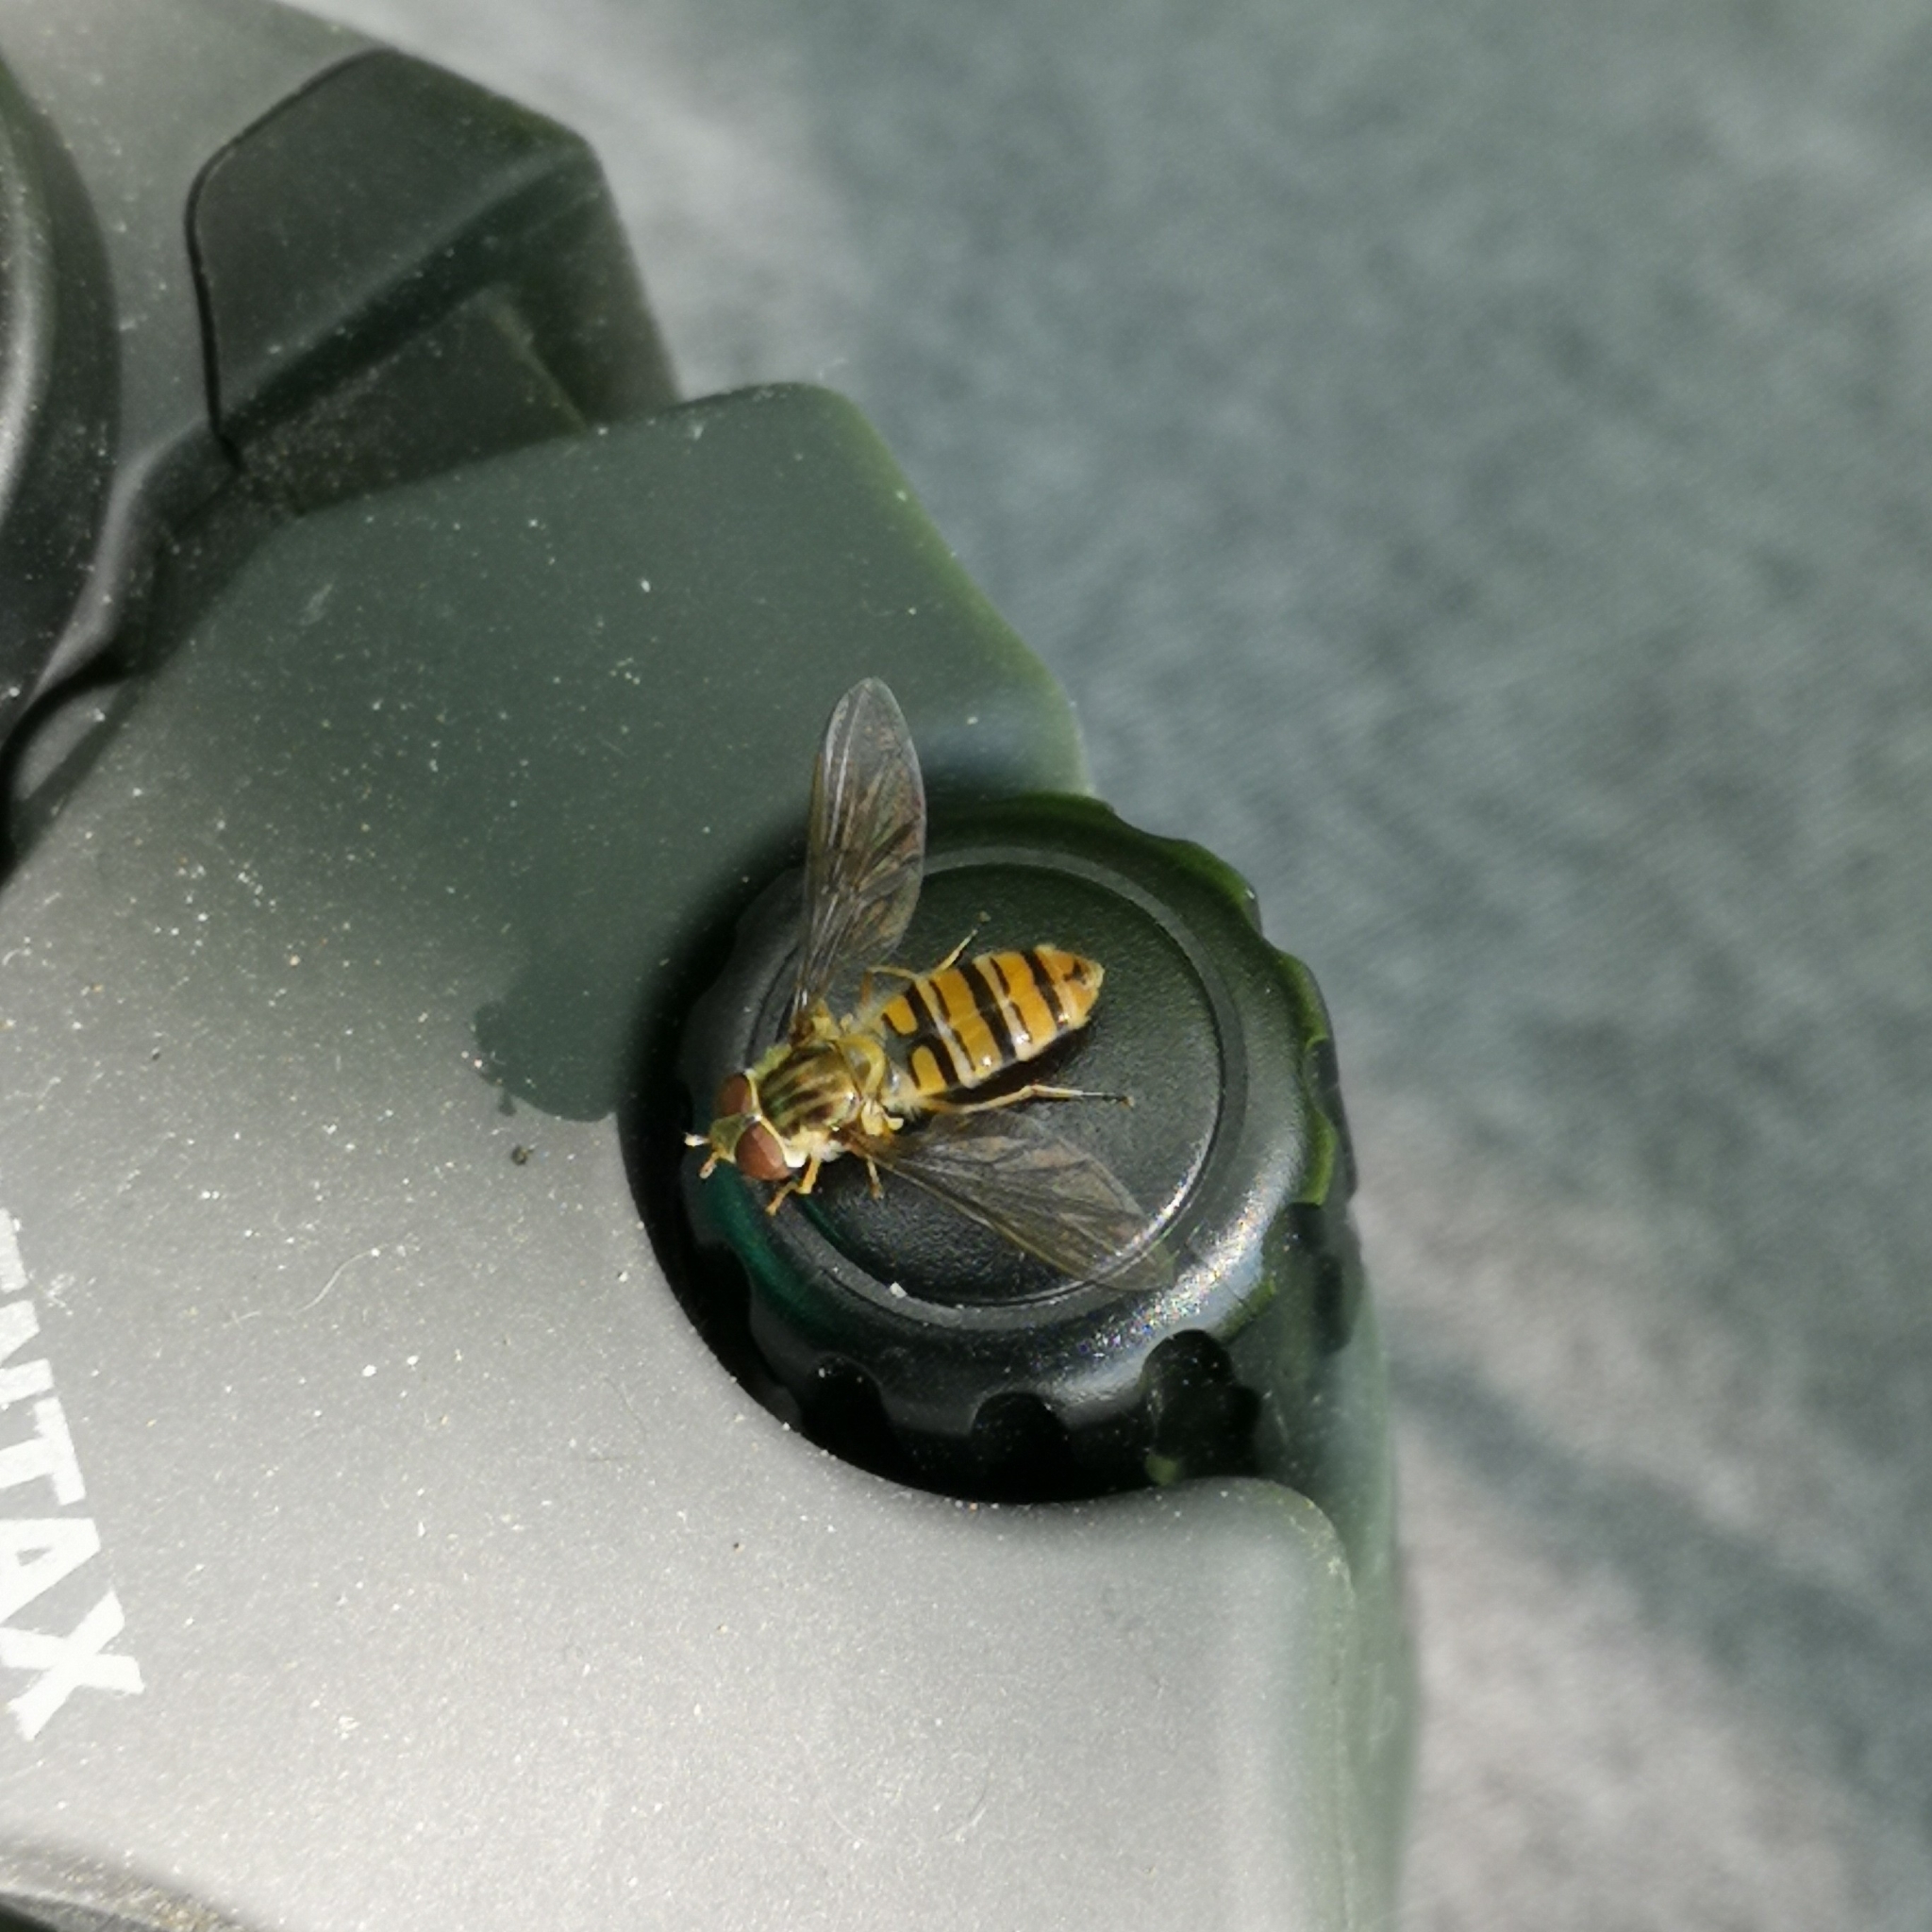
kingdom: Animalia
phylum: Arthropoda
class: Insecta
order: Diptera
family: Syrphidae
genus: Episyrphus
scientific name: Episyrphus balteatus
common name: Marmalade hoverfly
